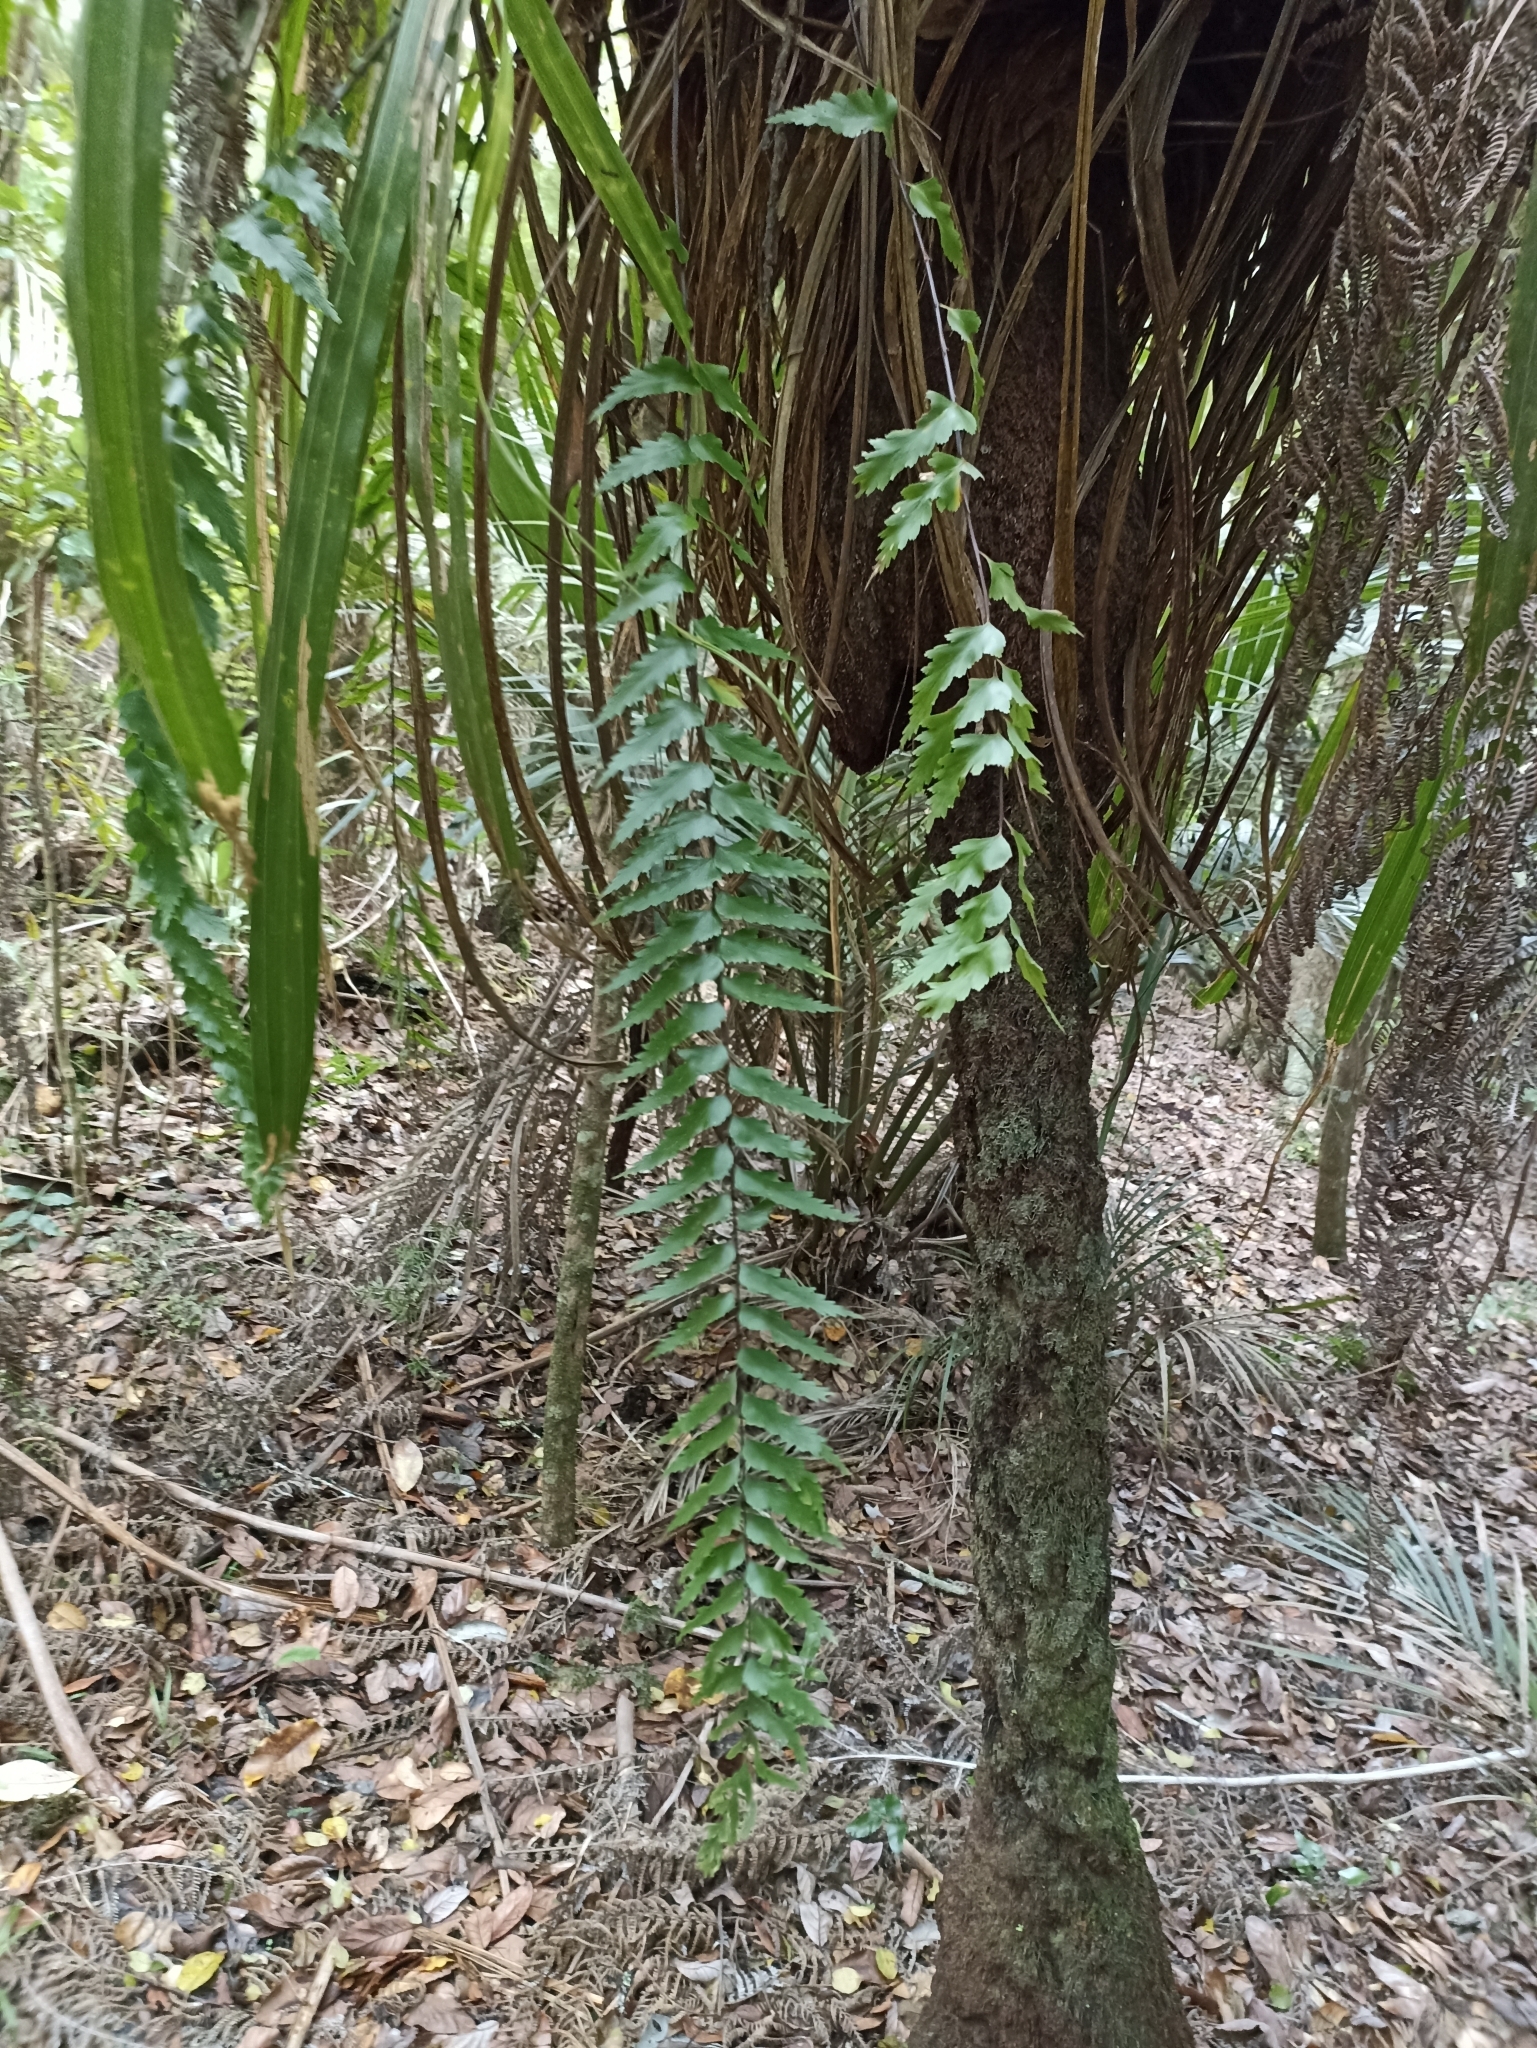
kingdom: Plantae
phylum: Tracheophyta
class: Polypodiopsida
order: Polypodiales
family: Aspleniaceae
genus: Asplenium
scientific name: Asplenium polyodon
